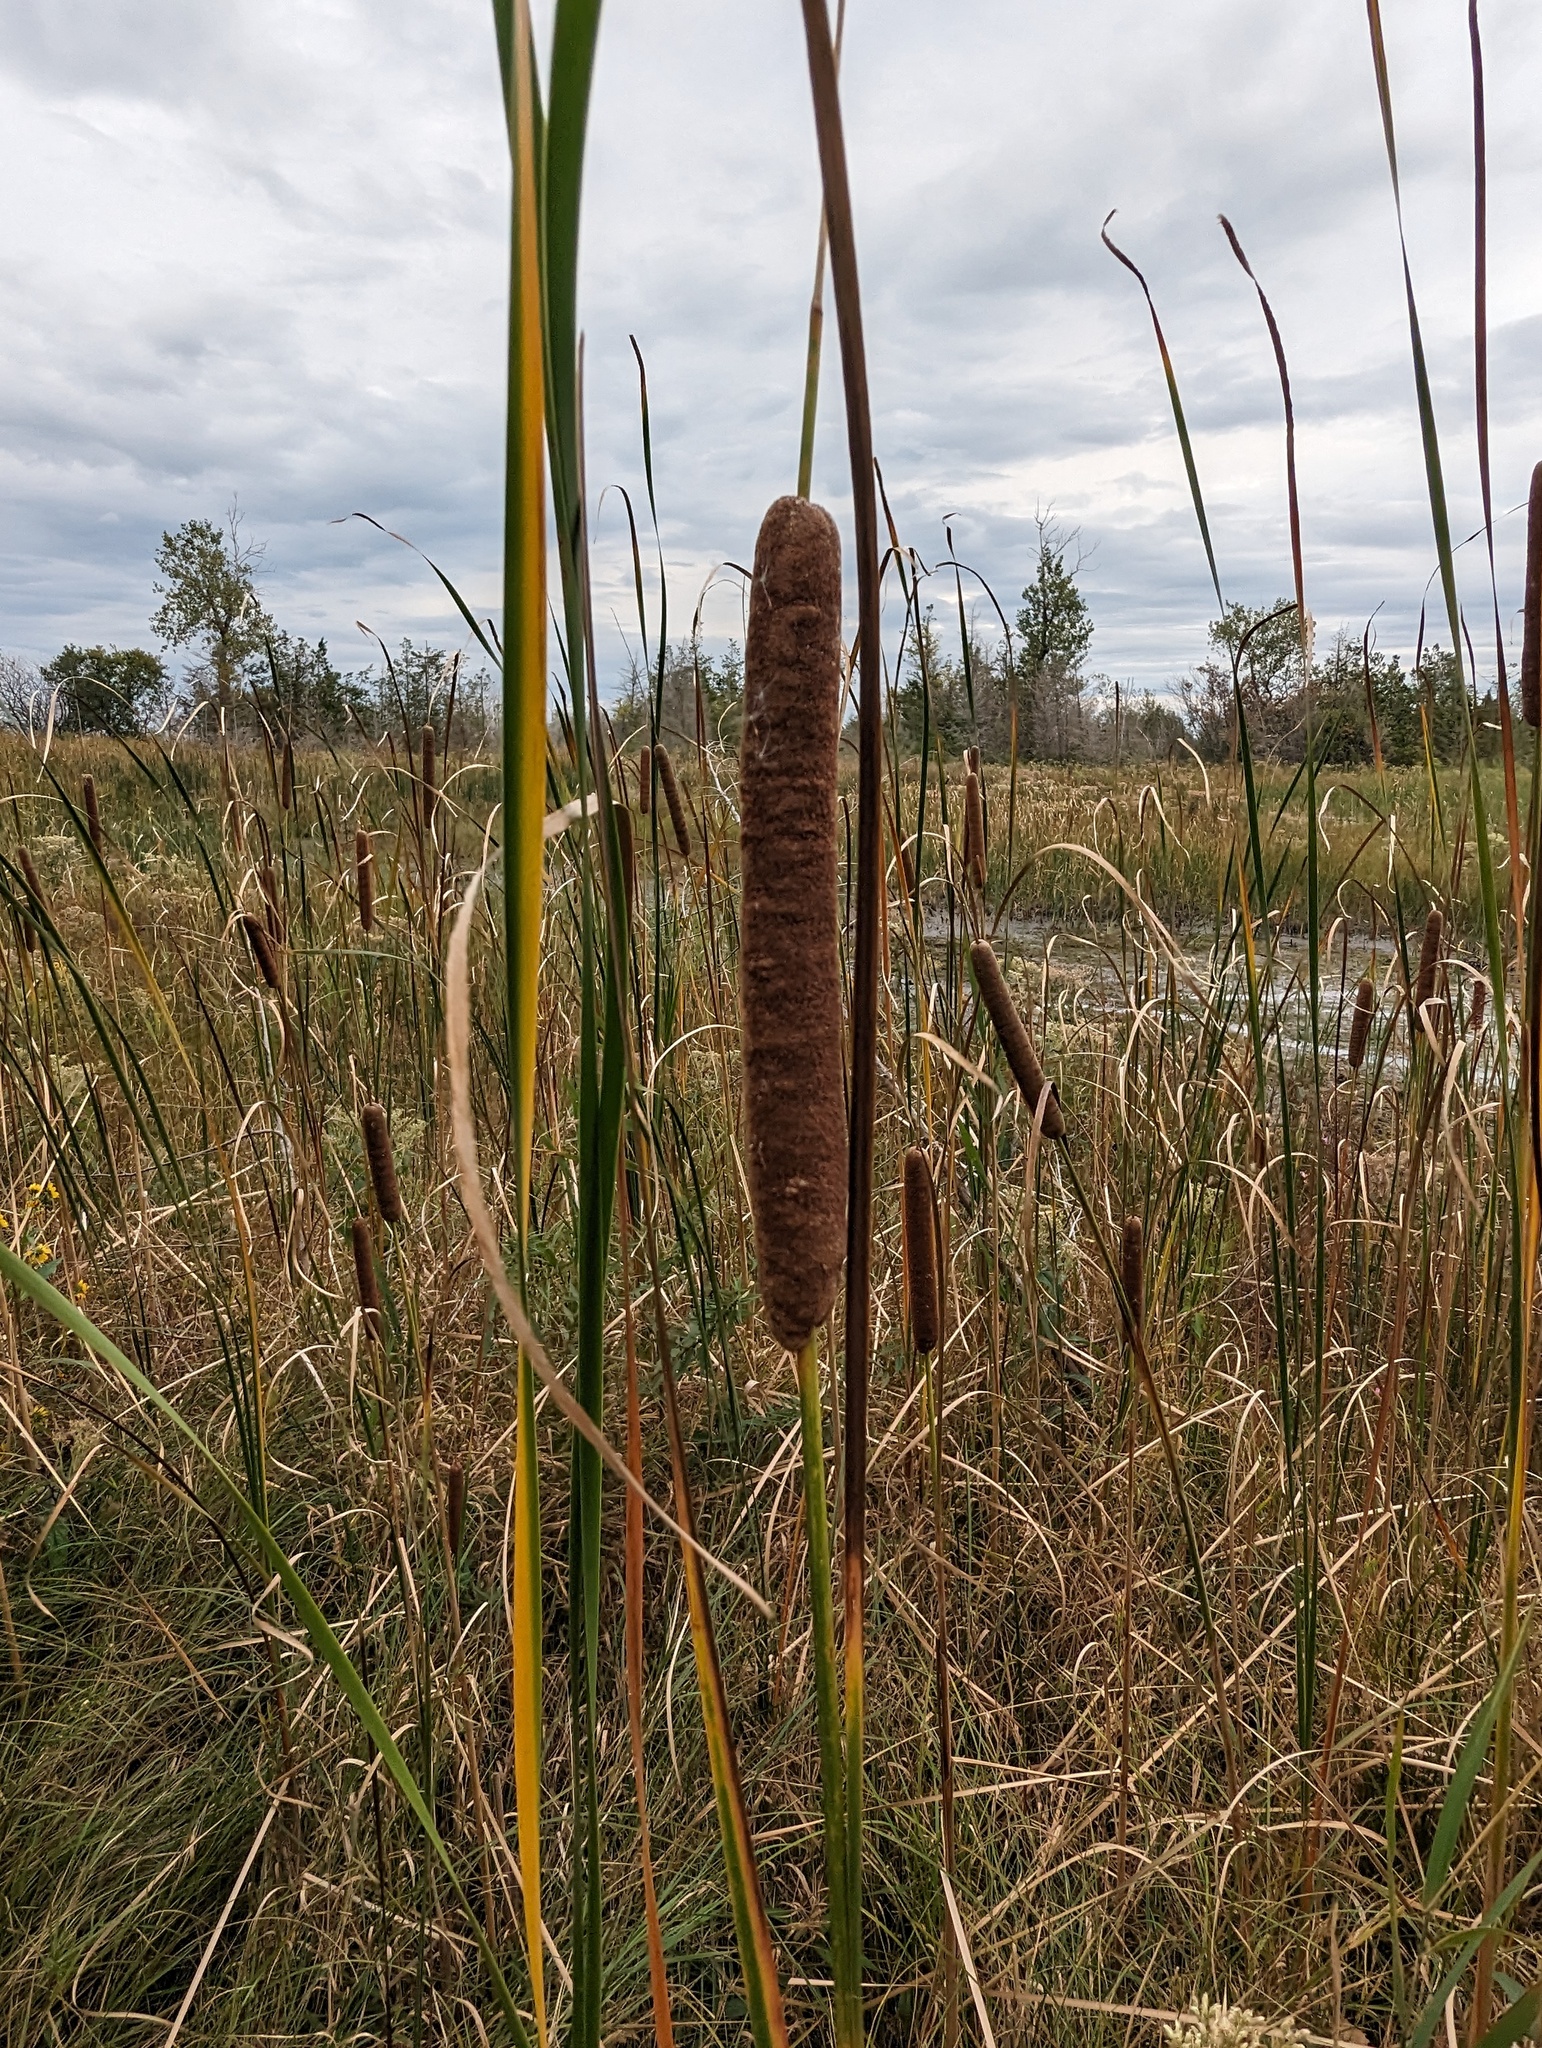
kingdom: Plantae
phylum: Tracheophyta
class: Liliopsida
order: Poales
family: Typhaceae
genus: Typha
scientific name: Typha angustifolia
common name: Lesser bulrush
